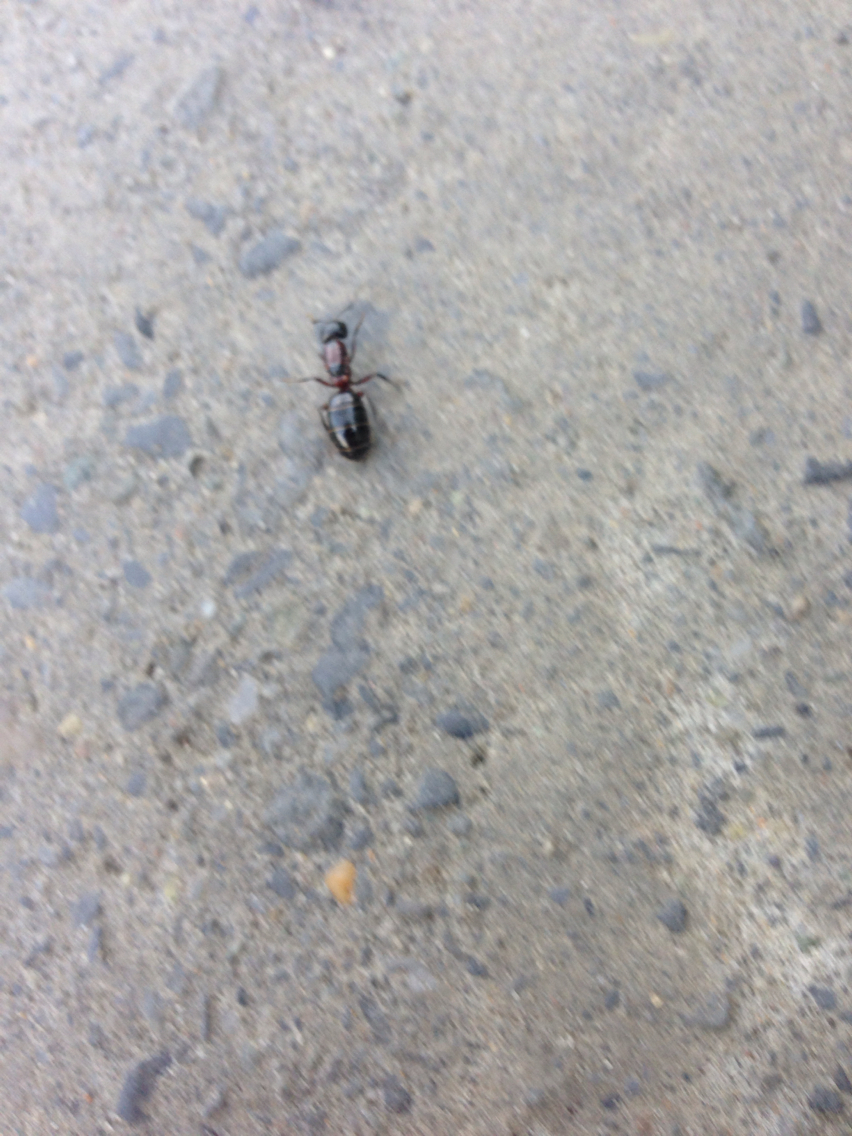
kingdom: Animalia
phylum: Arthropoda
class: Insecta
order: Hymenoptera
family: Formicidae
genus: Camponotus
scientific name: Camponotus novaeboracensis
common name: New york carpenter ant
